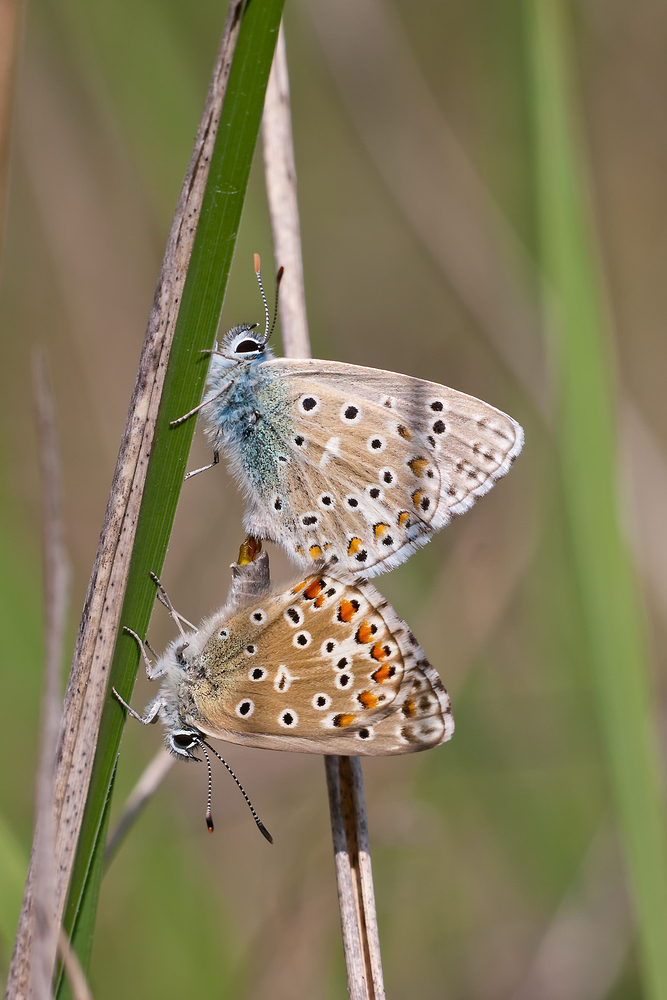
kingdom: Animalia
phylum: Arthropoda
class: Insecta
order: Lepidoptera
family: Lycaenidae
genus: Lysandra
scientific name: Lysandra bellargus
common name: Adonis blue
